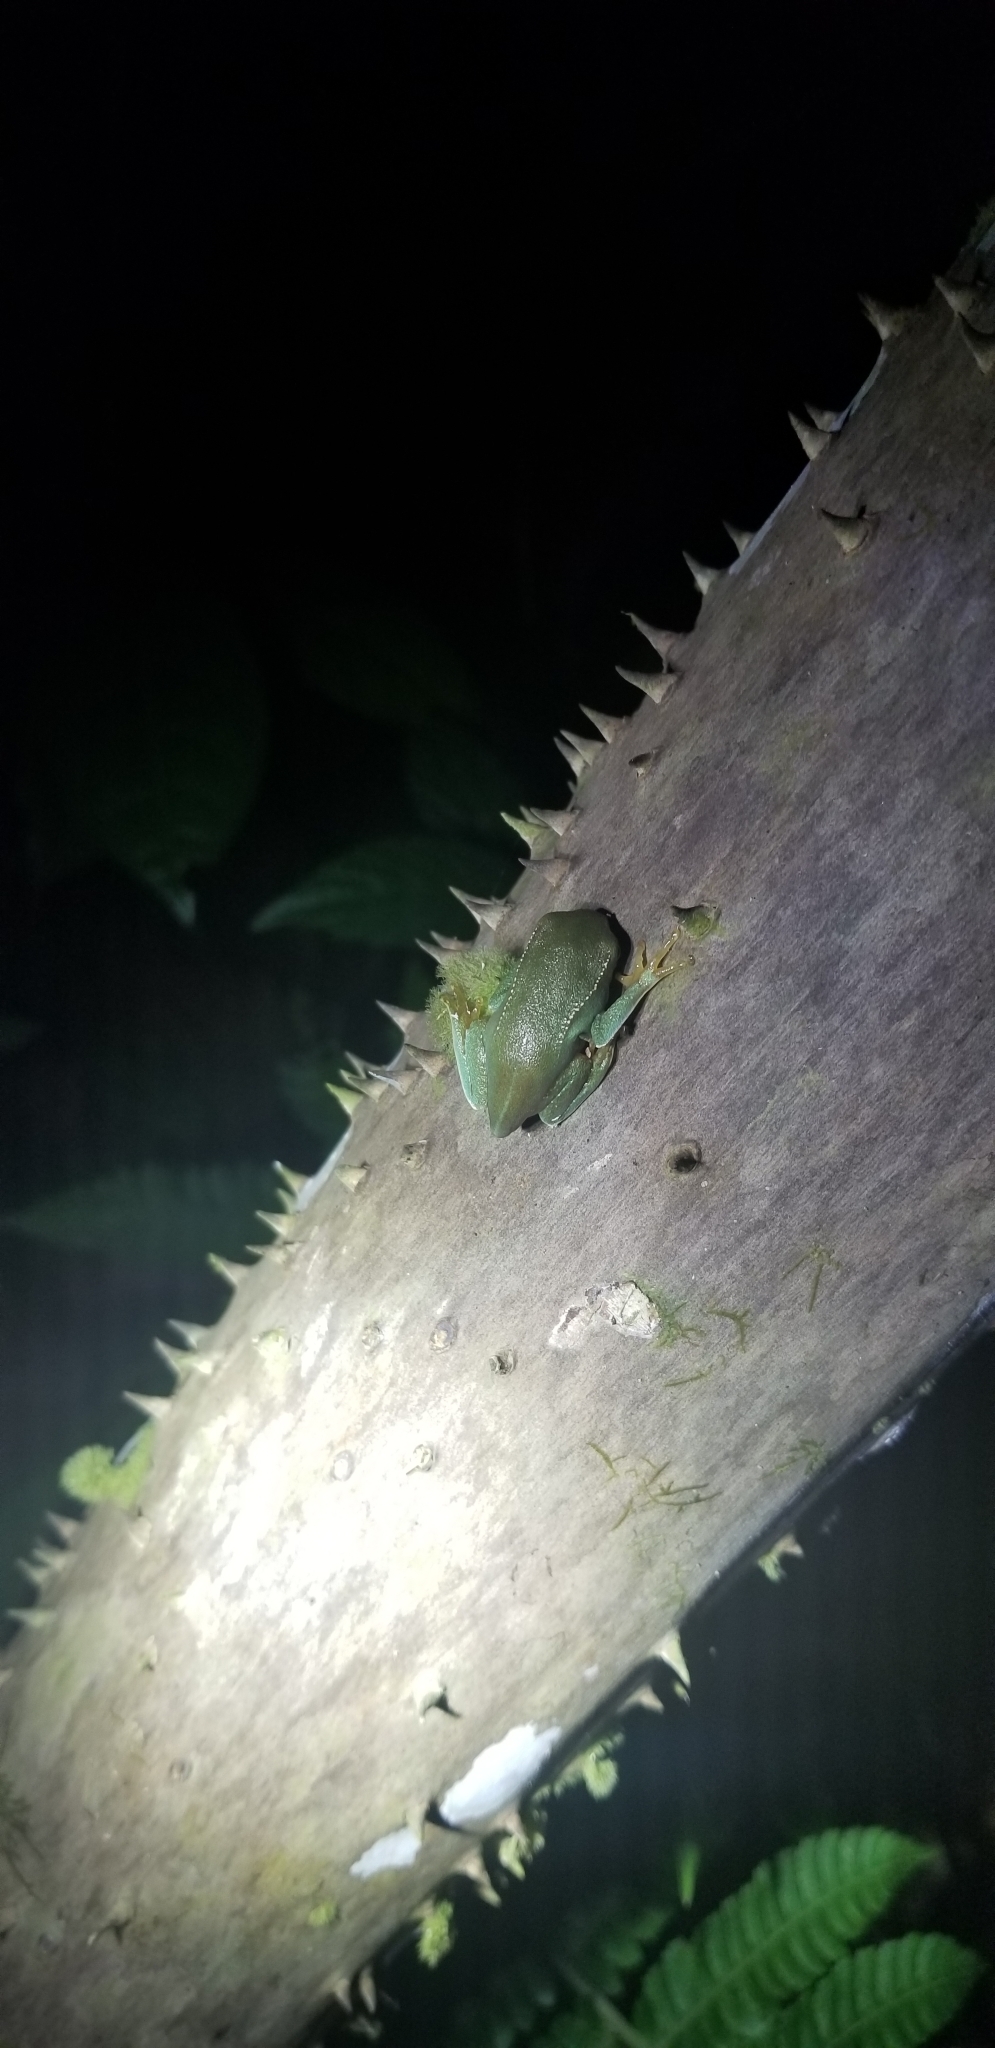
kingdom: Animalia
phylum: Chordata
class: Amphibia
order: Anura
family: Phyllomedusidae
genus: Phyllomedusa
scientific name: Phyllomedusa vaillantii
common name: White-lined leaf frog
